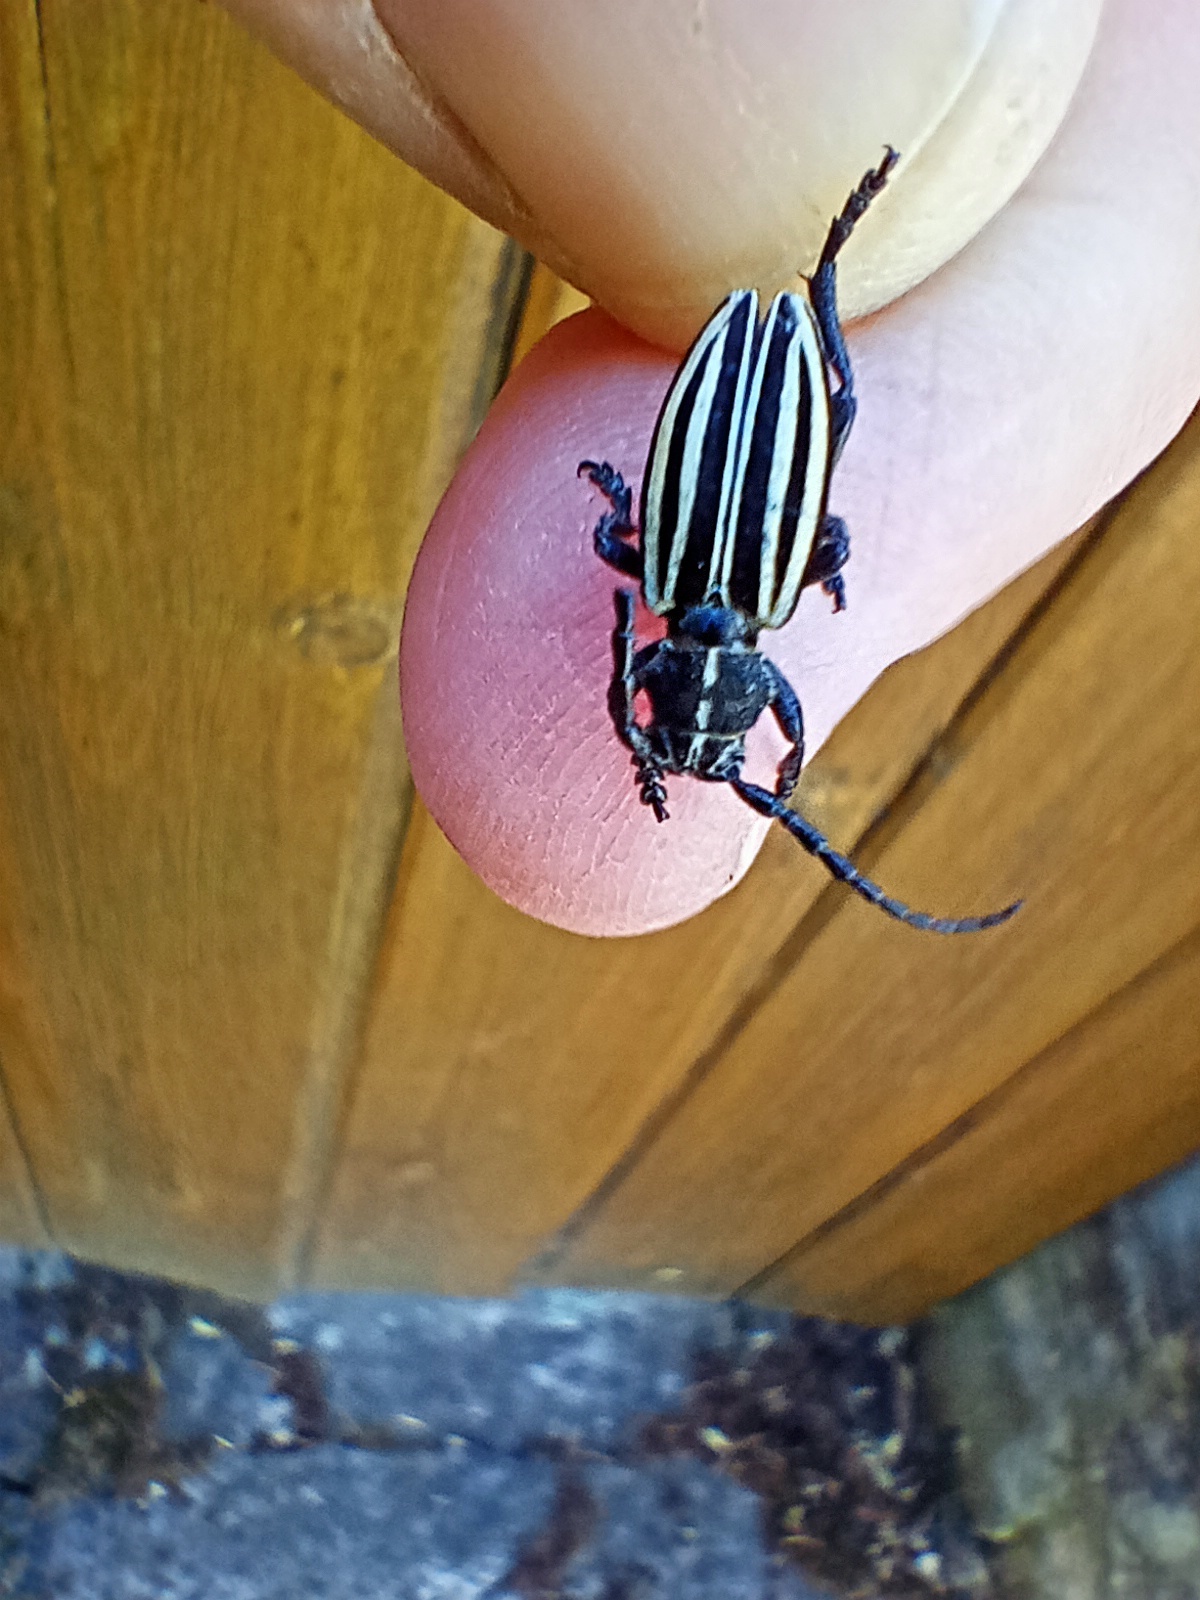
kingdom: Animalia
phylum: Arthropoda
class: Insecta
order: Coleoptera
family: Cerambycidae
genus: Dorcadion
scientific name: Dorcadion scopolii
